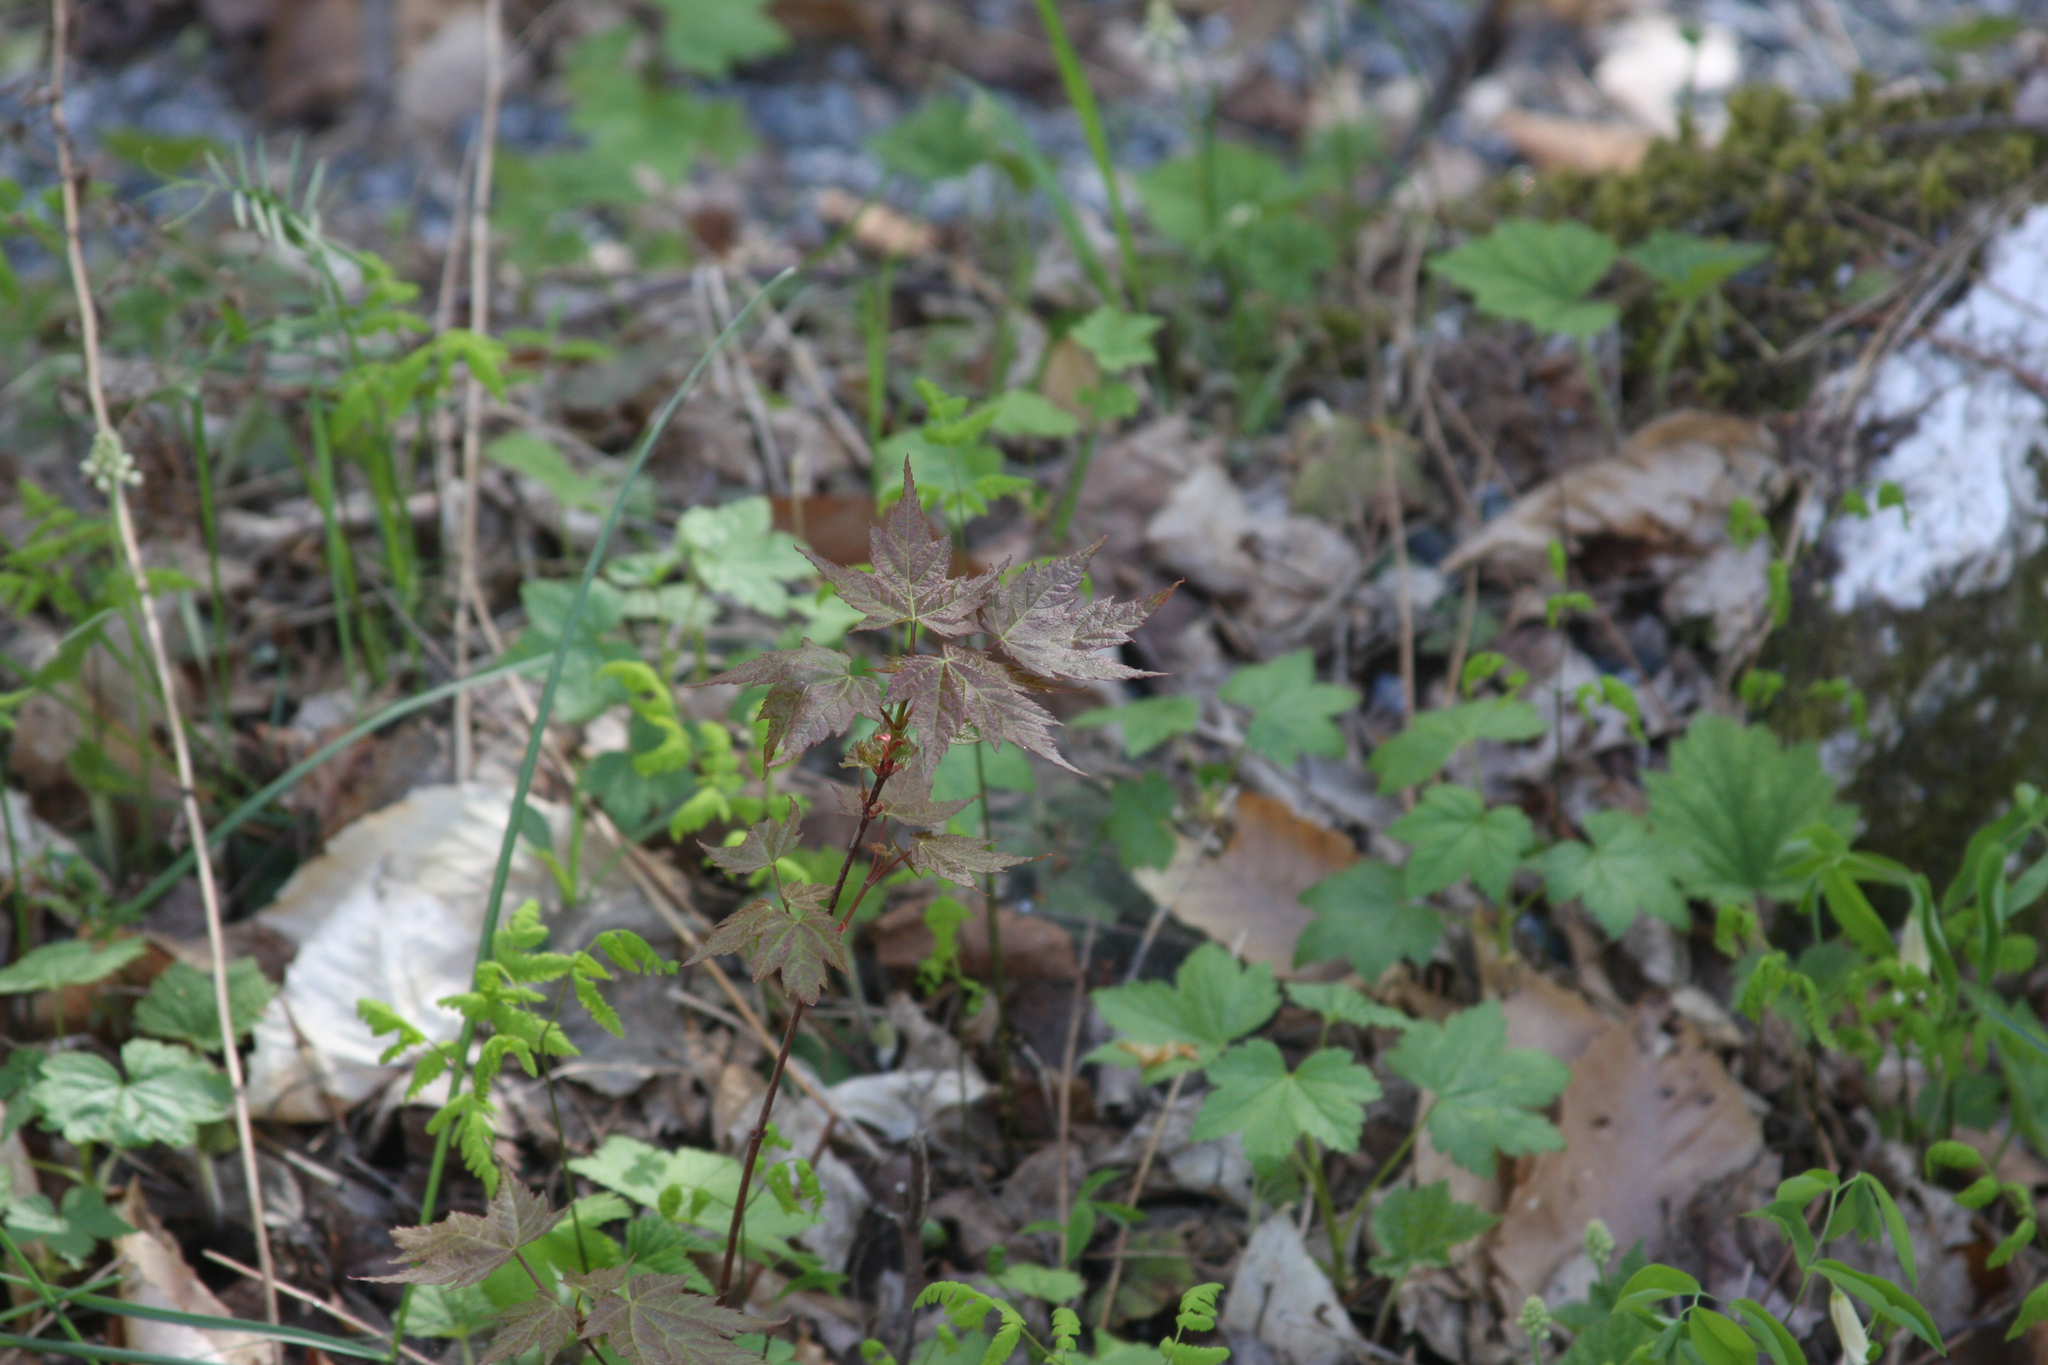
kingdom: Plantae
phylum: Tracheophyta
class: Magnoliopsida
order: Sapindales
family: Sapindaceae
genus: Acer
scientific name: Acer rubrum
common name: Red maple
